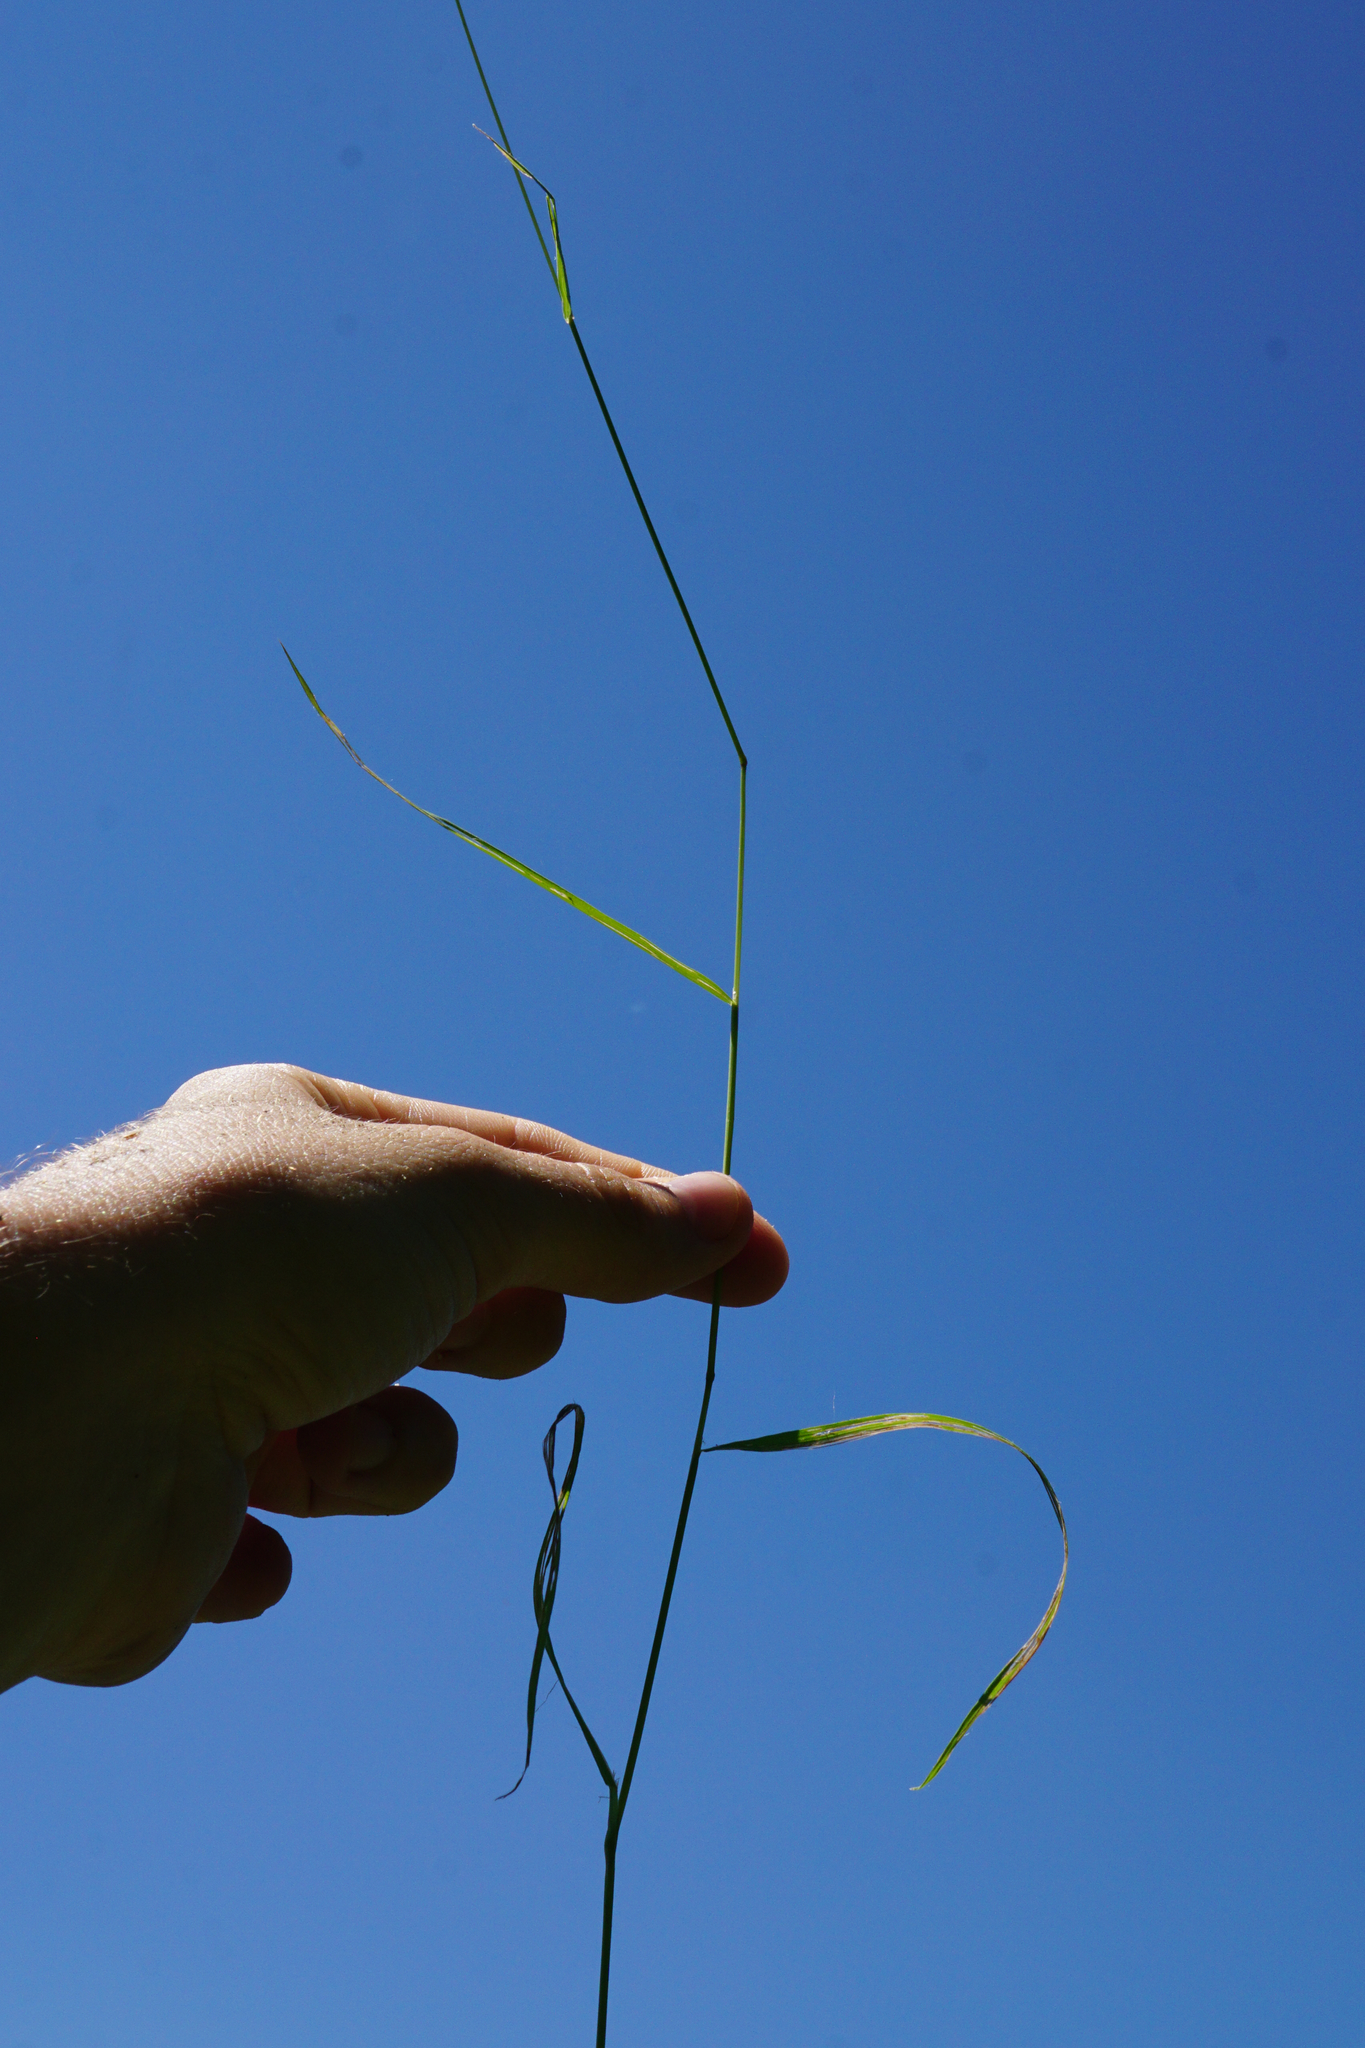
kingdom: Plantae
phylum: Tracheophyta
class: Liliopsida
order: Poales
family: Poaceae
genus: Agrostis
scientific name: Agrostis stolonifera
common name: Creeping bentgrass
